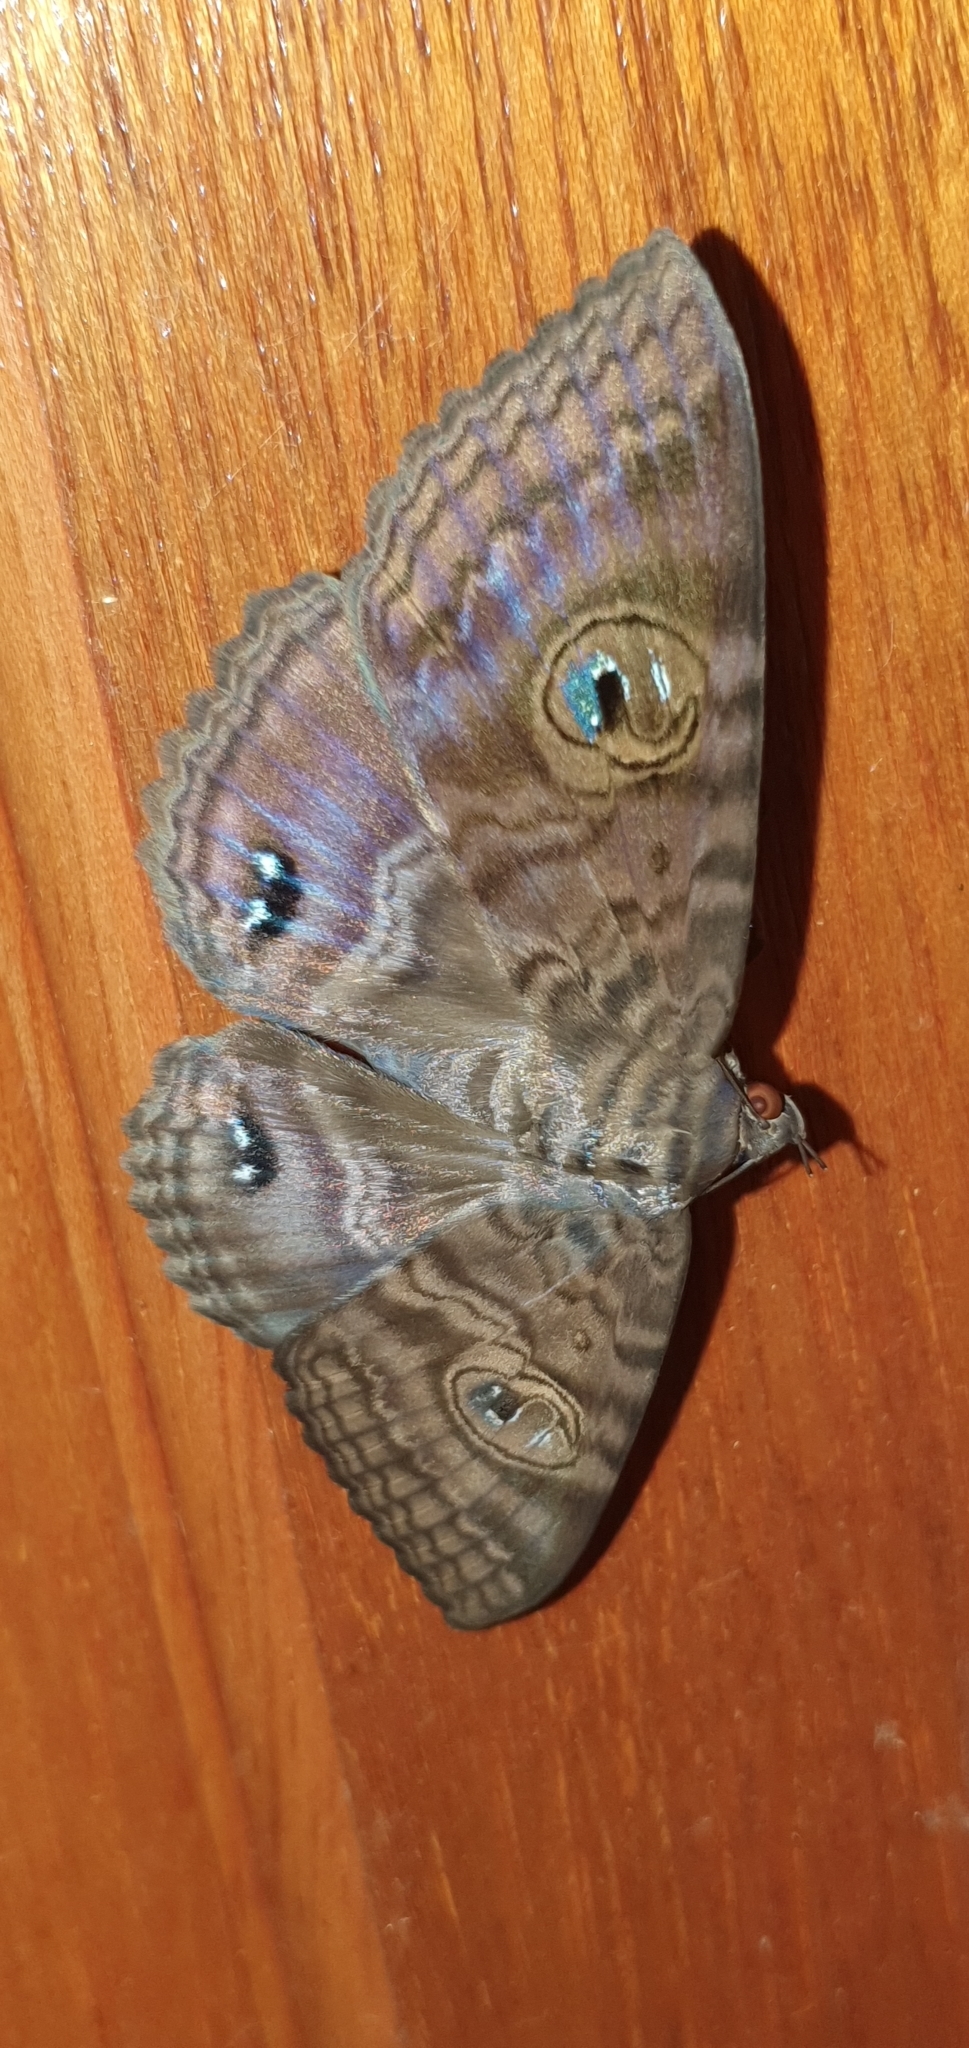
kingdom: Animalia
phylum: Arthropoda
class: Insecta
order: Lepidoptera
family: Erebidae
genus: Speiredonia
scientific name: Speiredonia spectans
